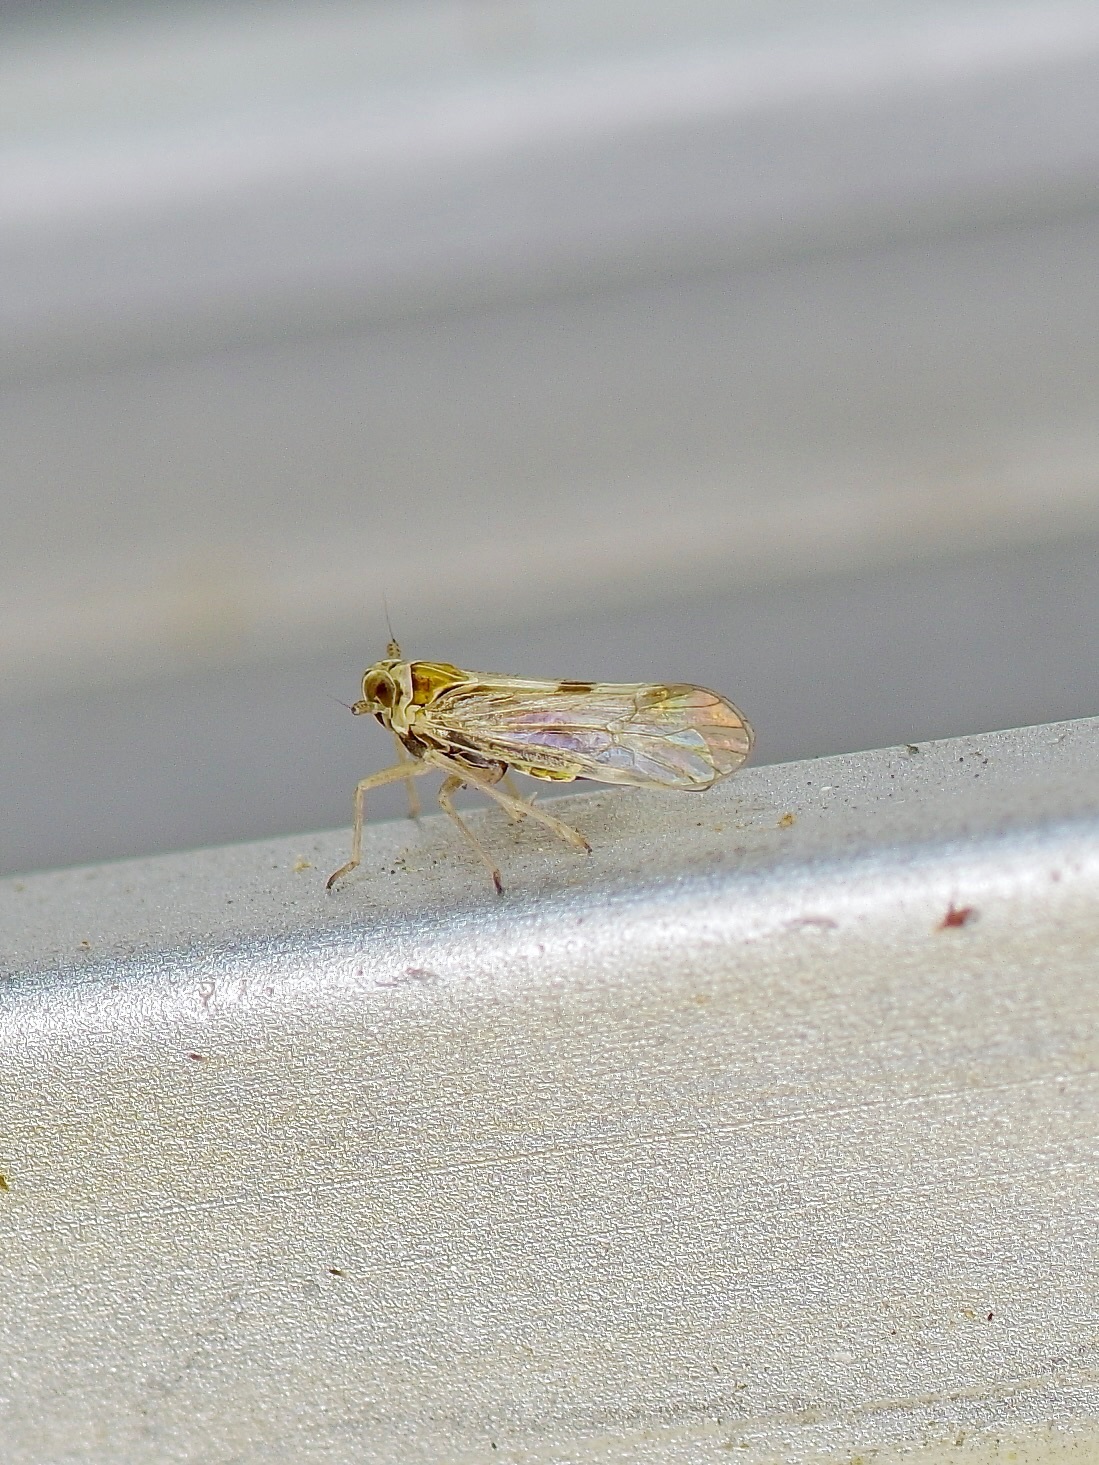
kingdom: Animalia
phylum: Arthropoda
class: Insecta
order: Hemiptera
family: Delphacidae
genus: Chionomus
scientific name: Chionomus
